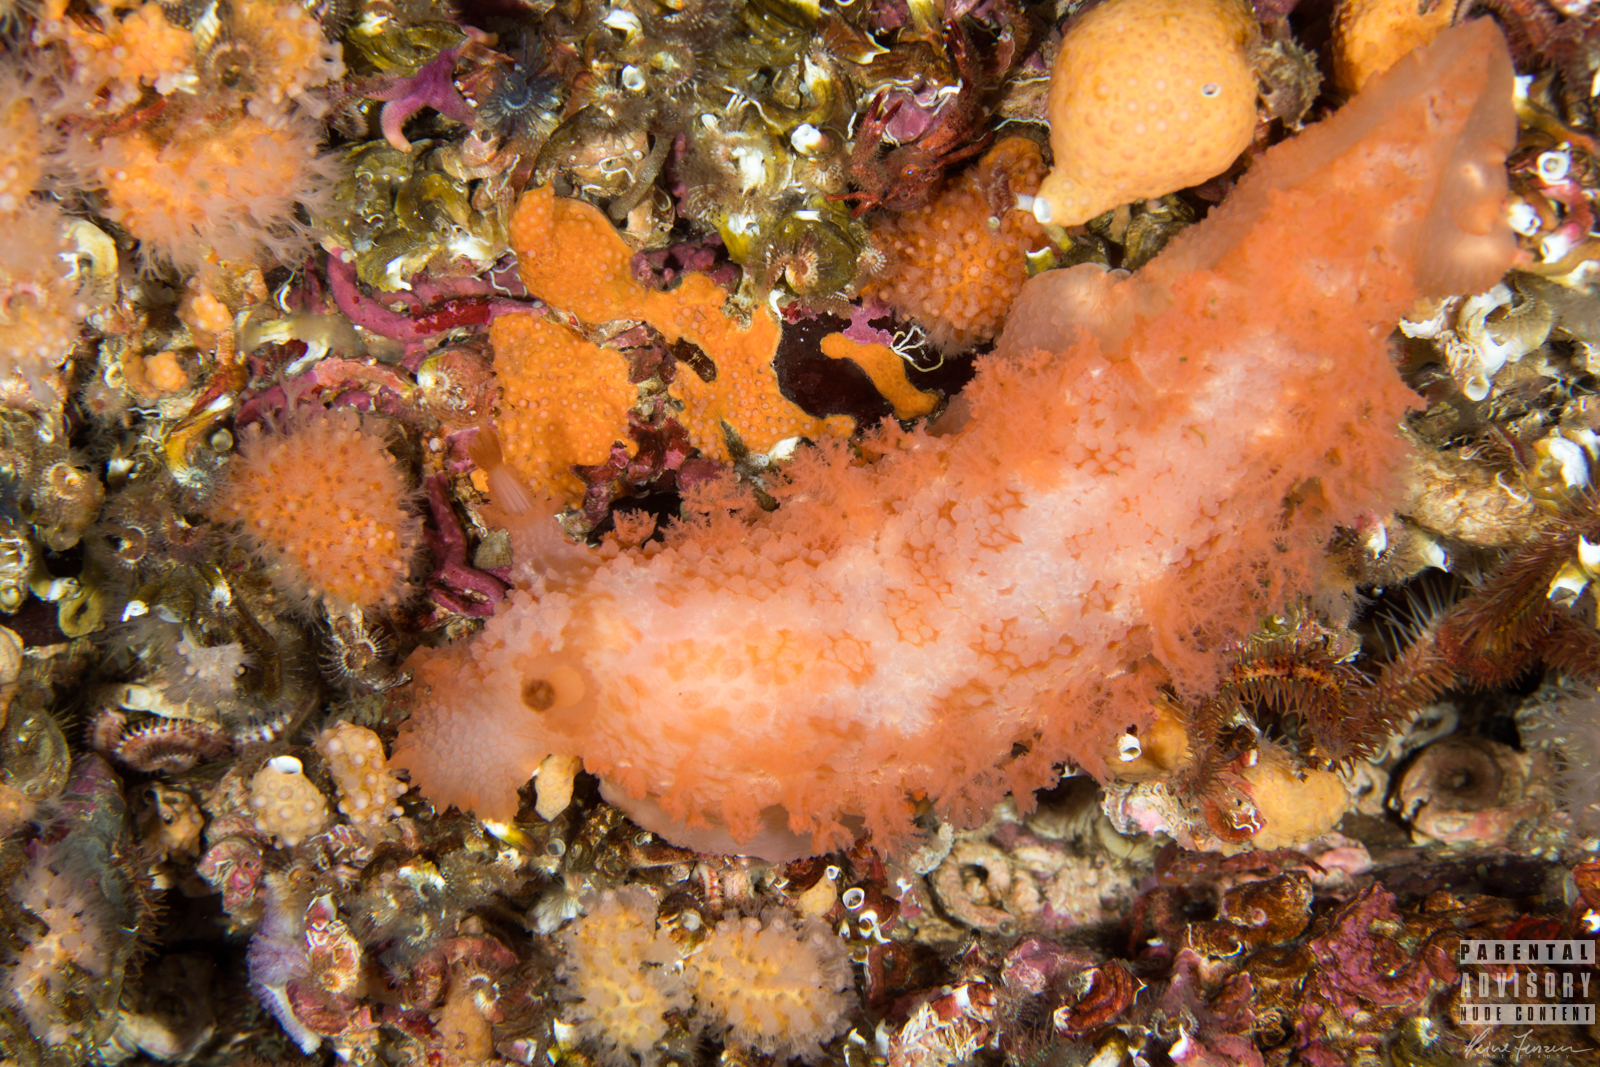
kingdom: Animalia
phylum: Mollusca
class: Gastropoda
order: Nudibranchia
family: Tritoniidae
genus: Tritonia
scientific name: Tritonia hombergii
